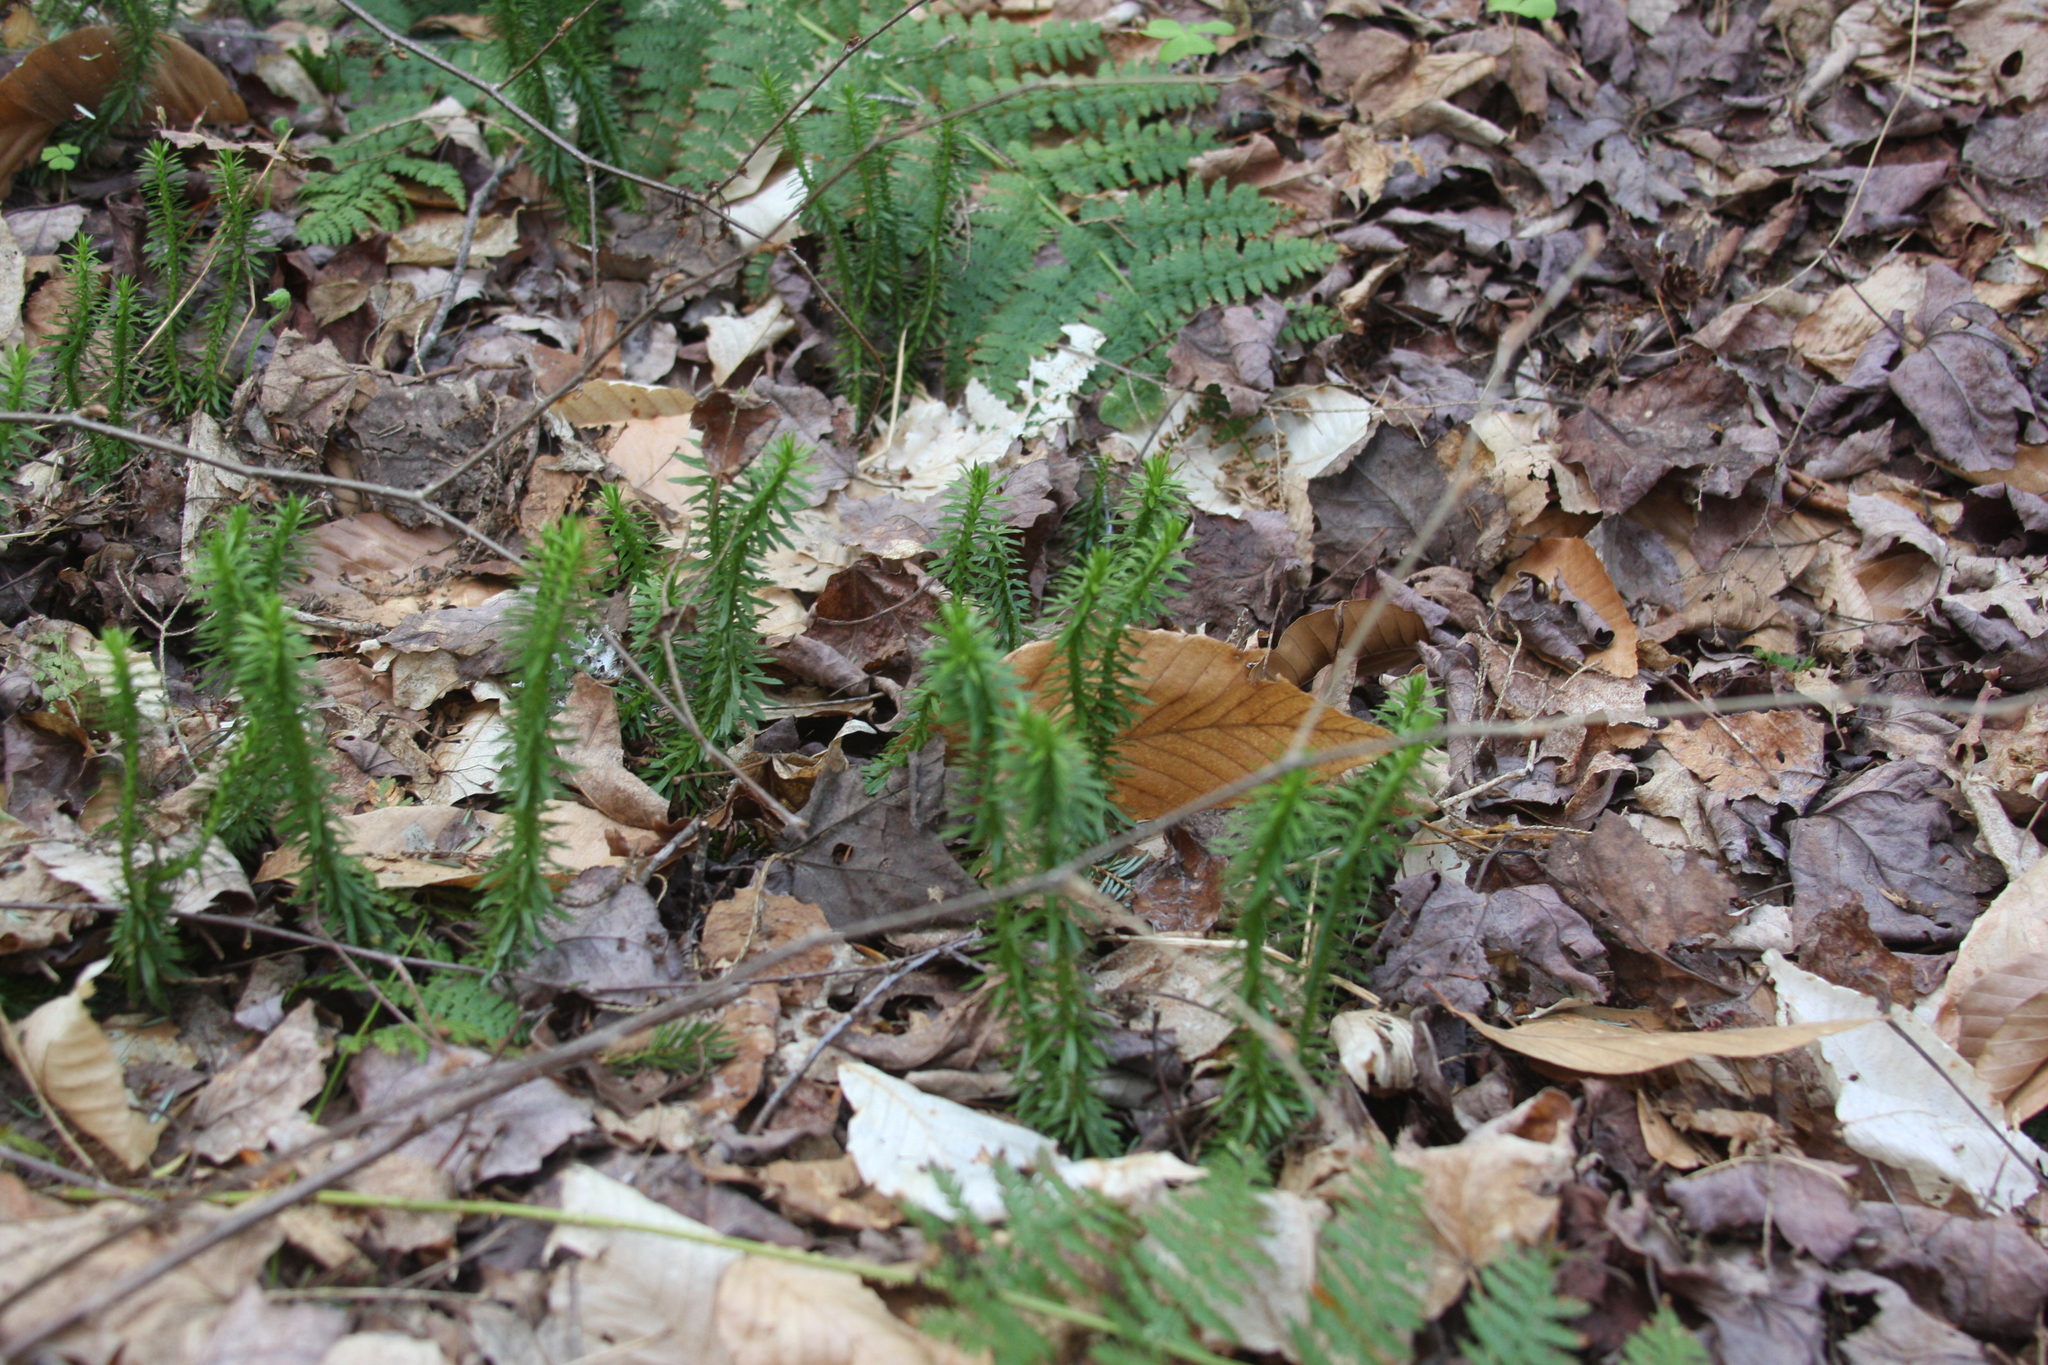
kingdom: Plantae
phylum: Tracheophyta
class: Lycopodiopsida
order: Lycopodiales
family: Lycopodiaceae
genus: Huperzia
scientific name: Huperzia lucidula
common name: Shining clubmoss
